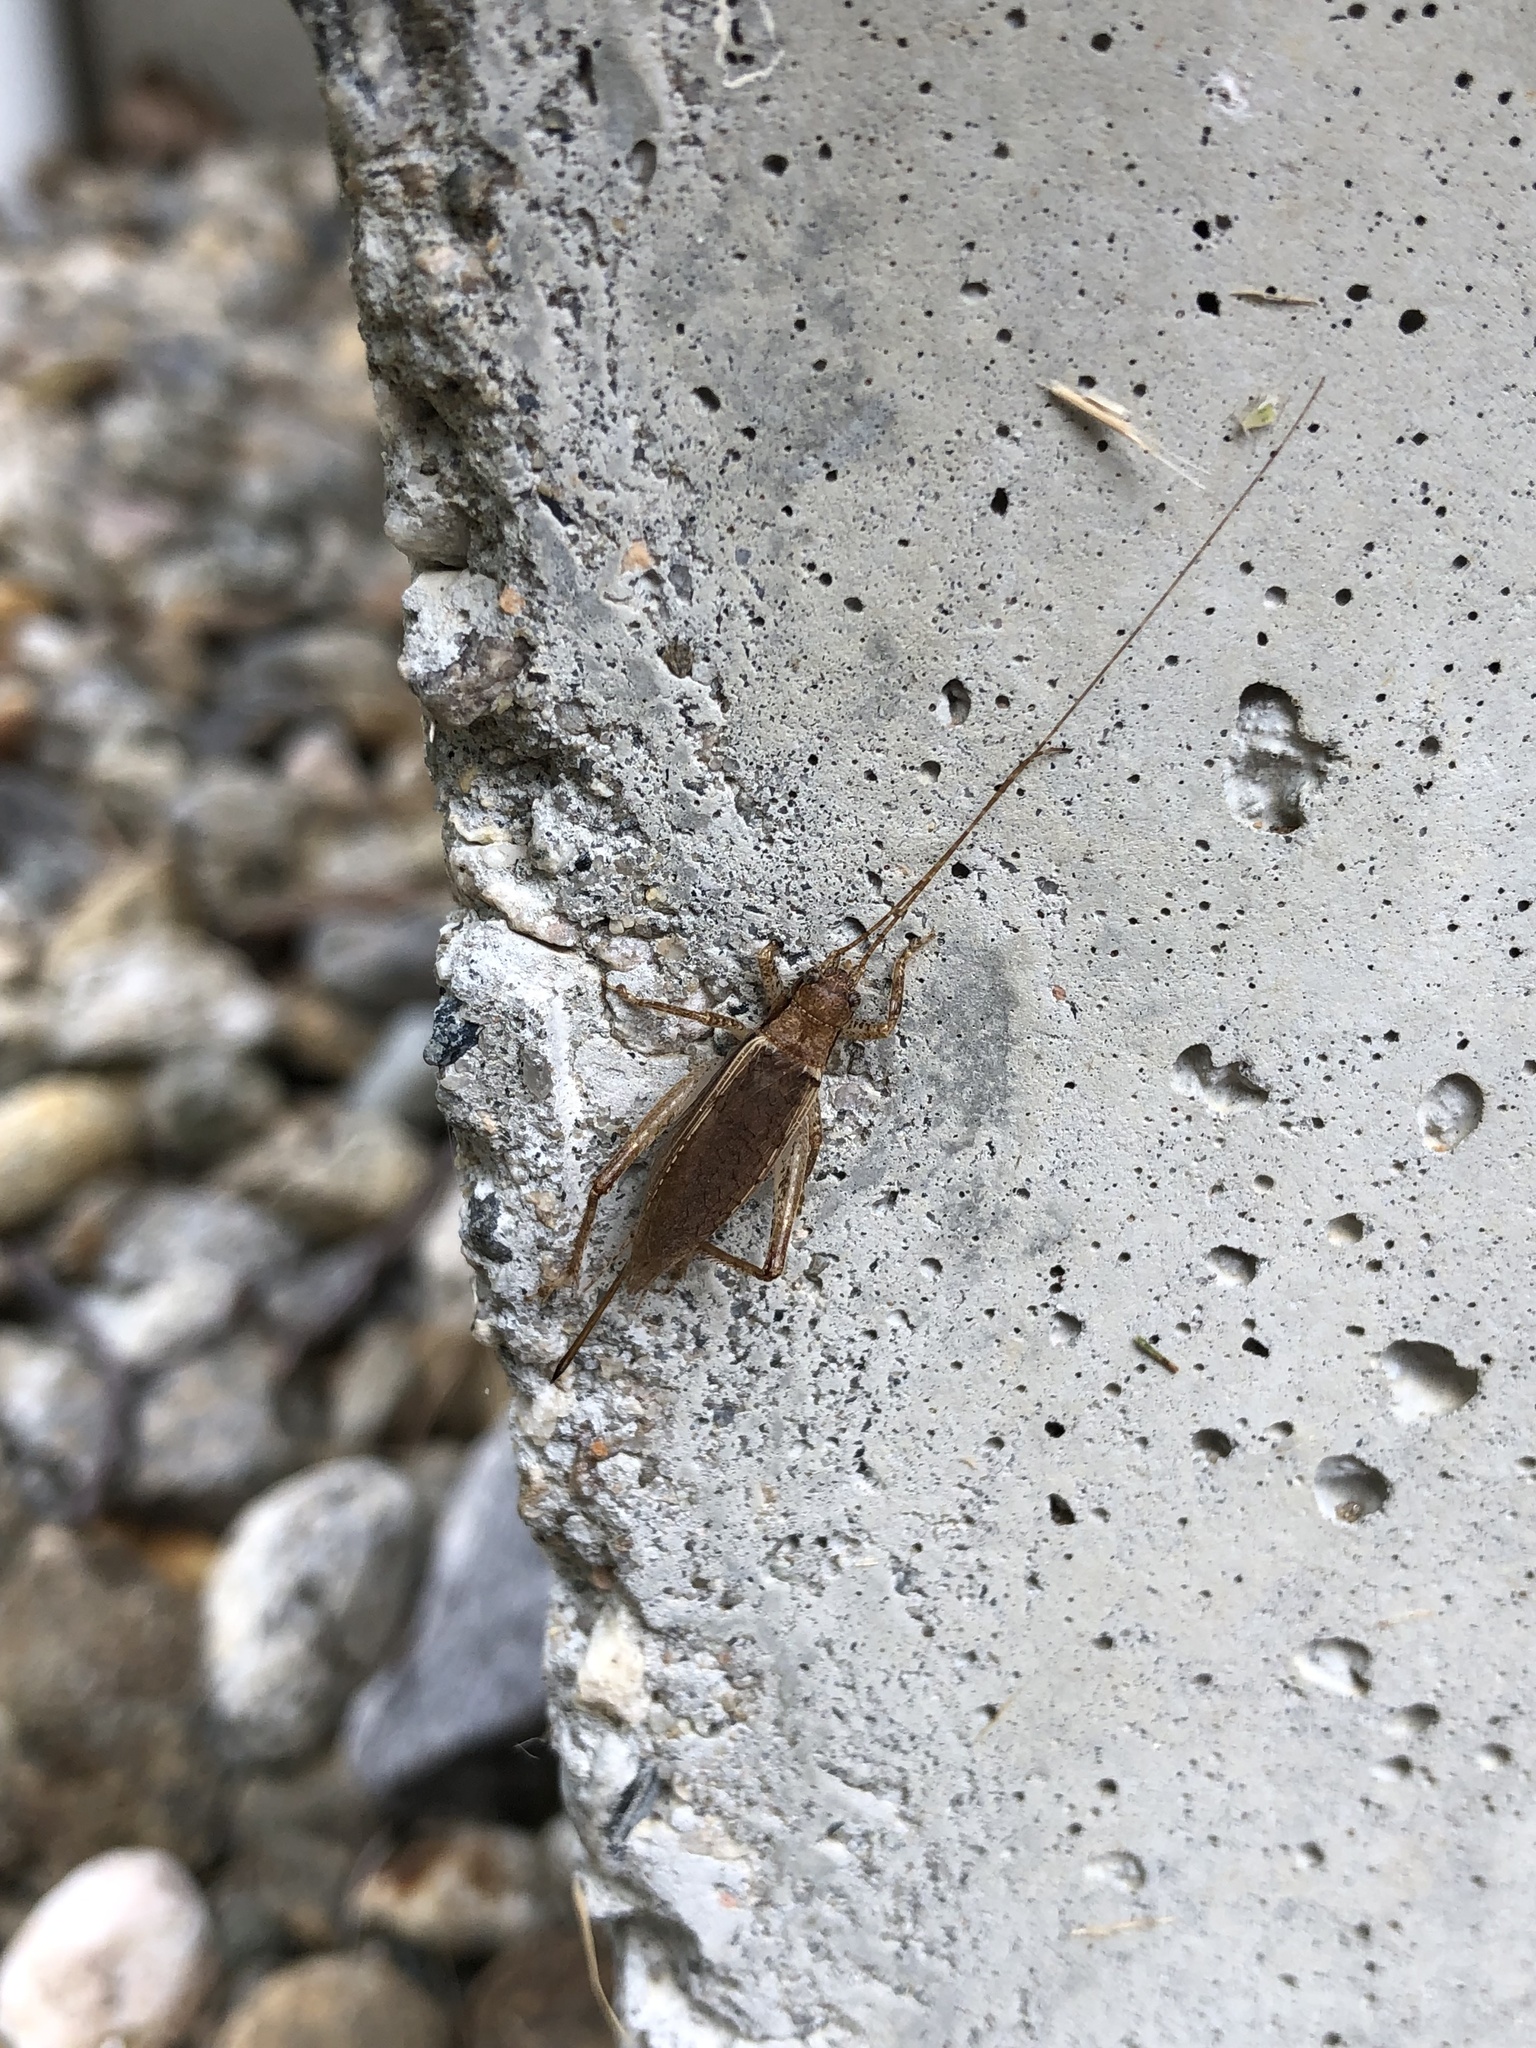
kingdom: Animalia
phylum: Arthropoda
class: Insecta
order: Orthoptera
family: Gryllidae
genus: Hapithus
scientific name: Hapithus saltator
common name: Jumping bush cricket
